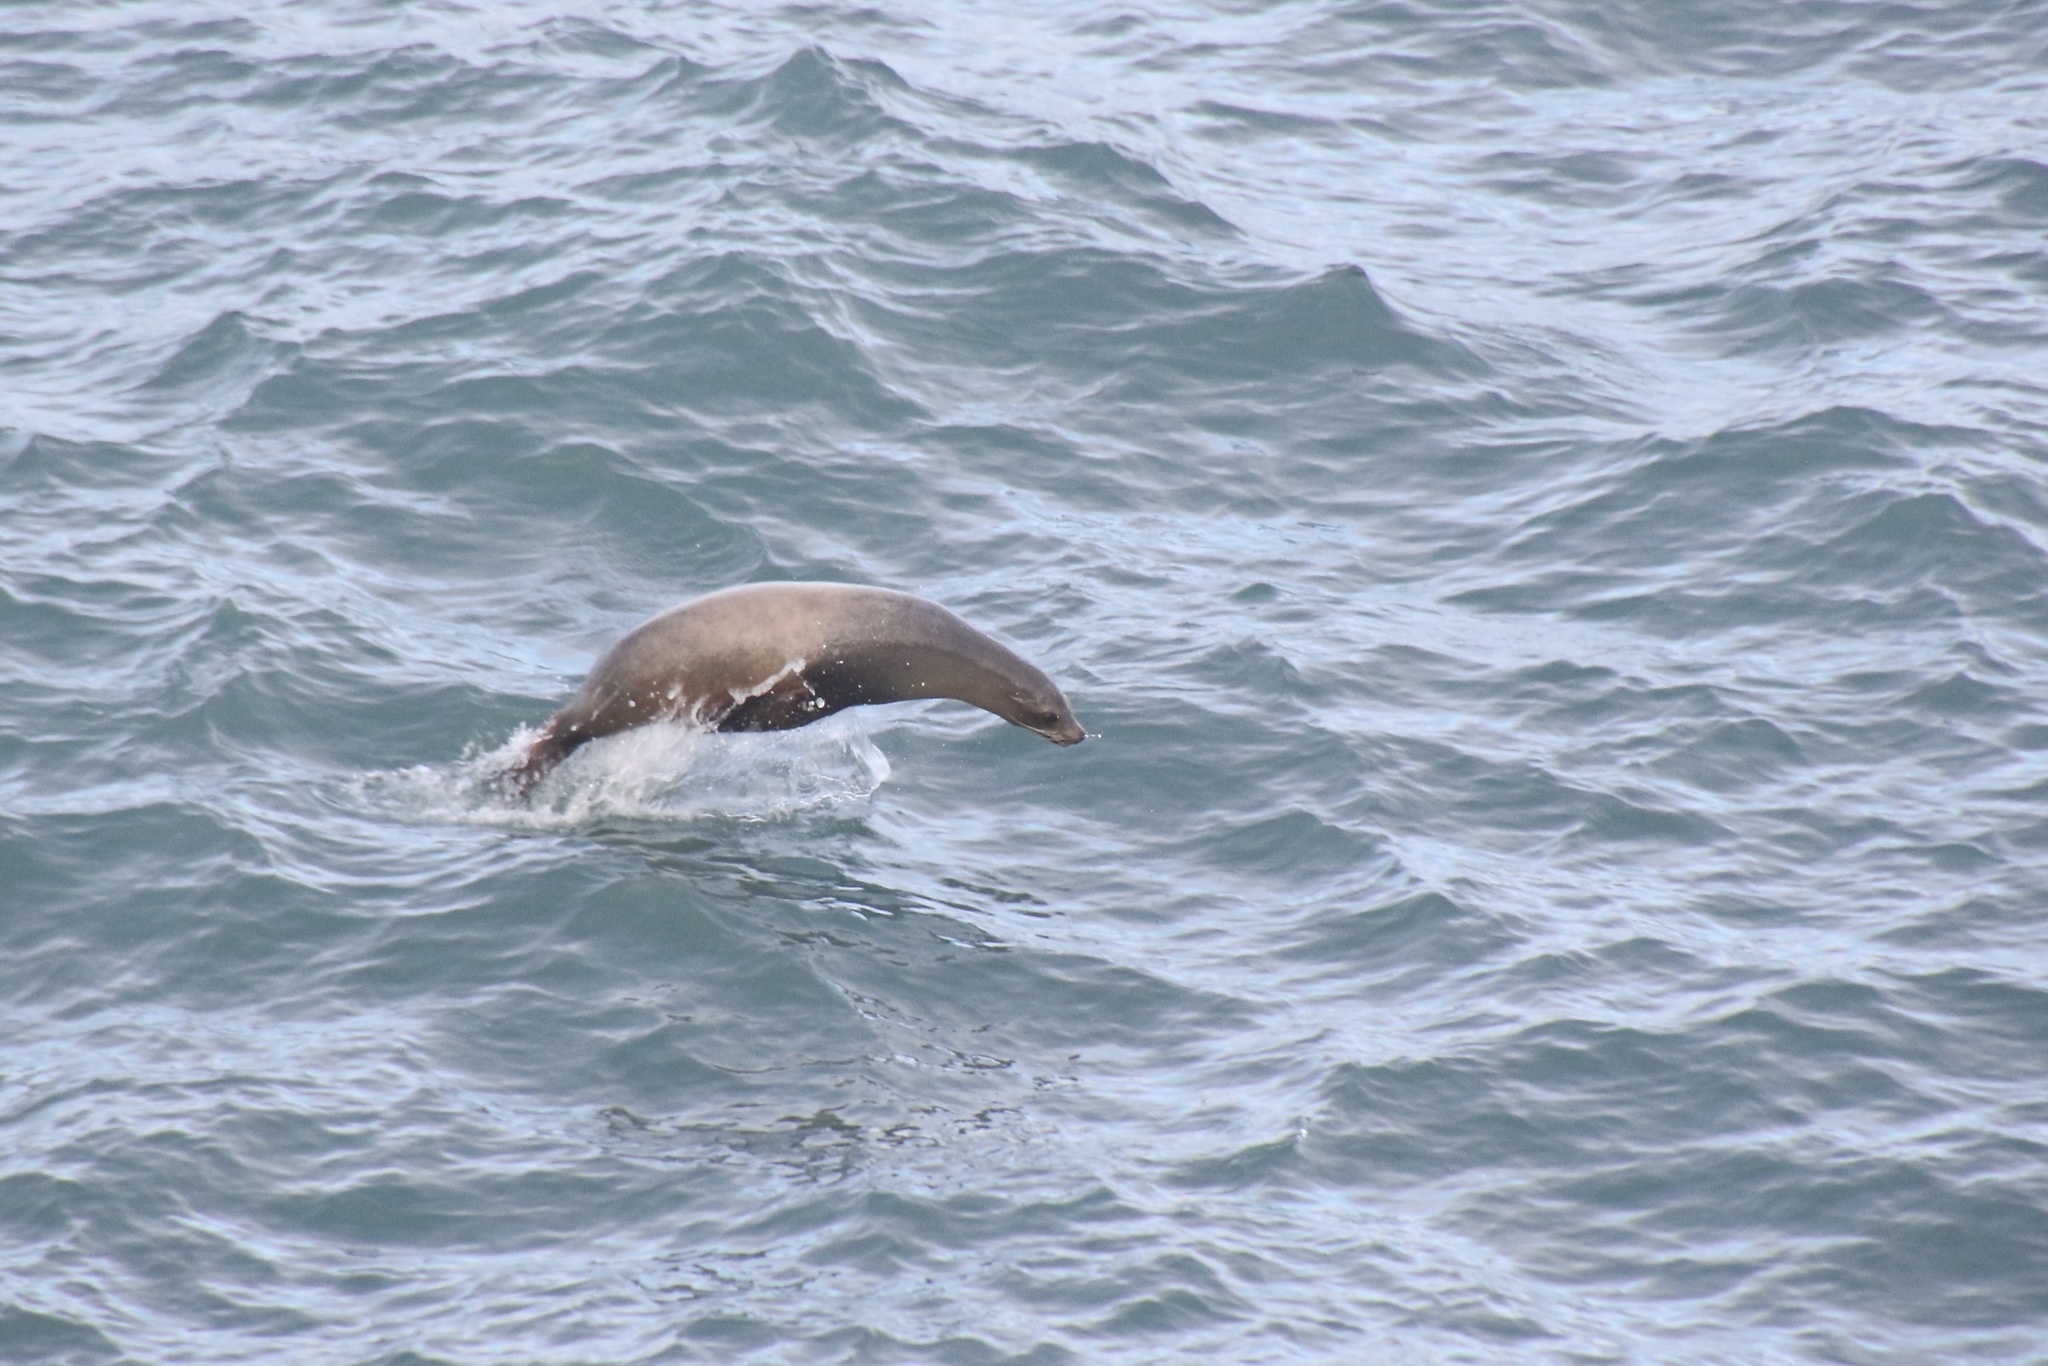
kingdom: Animalia
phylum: Chordata
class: Mammalia
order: Carnivora
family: Otariidae
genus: Zalophus
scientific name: Zalophus californianus
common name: California sea lion
